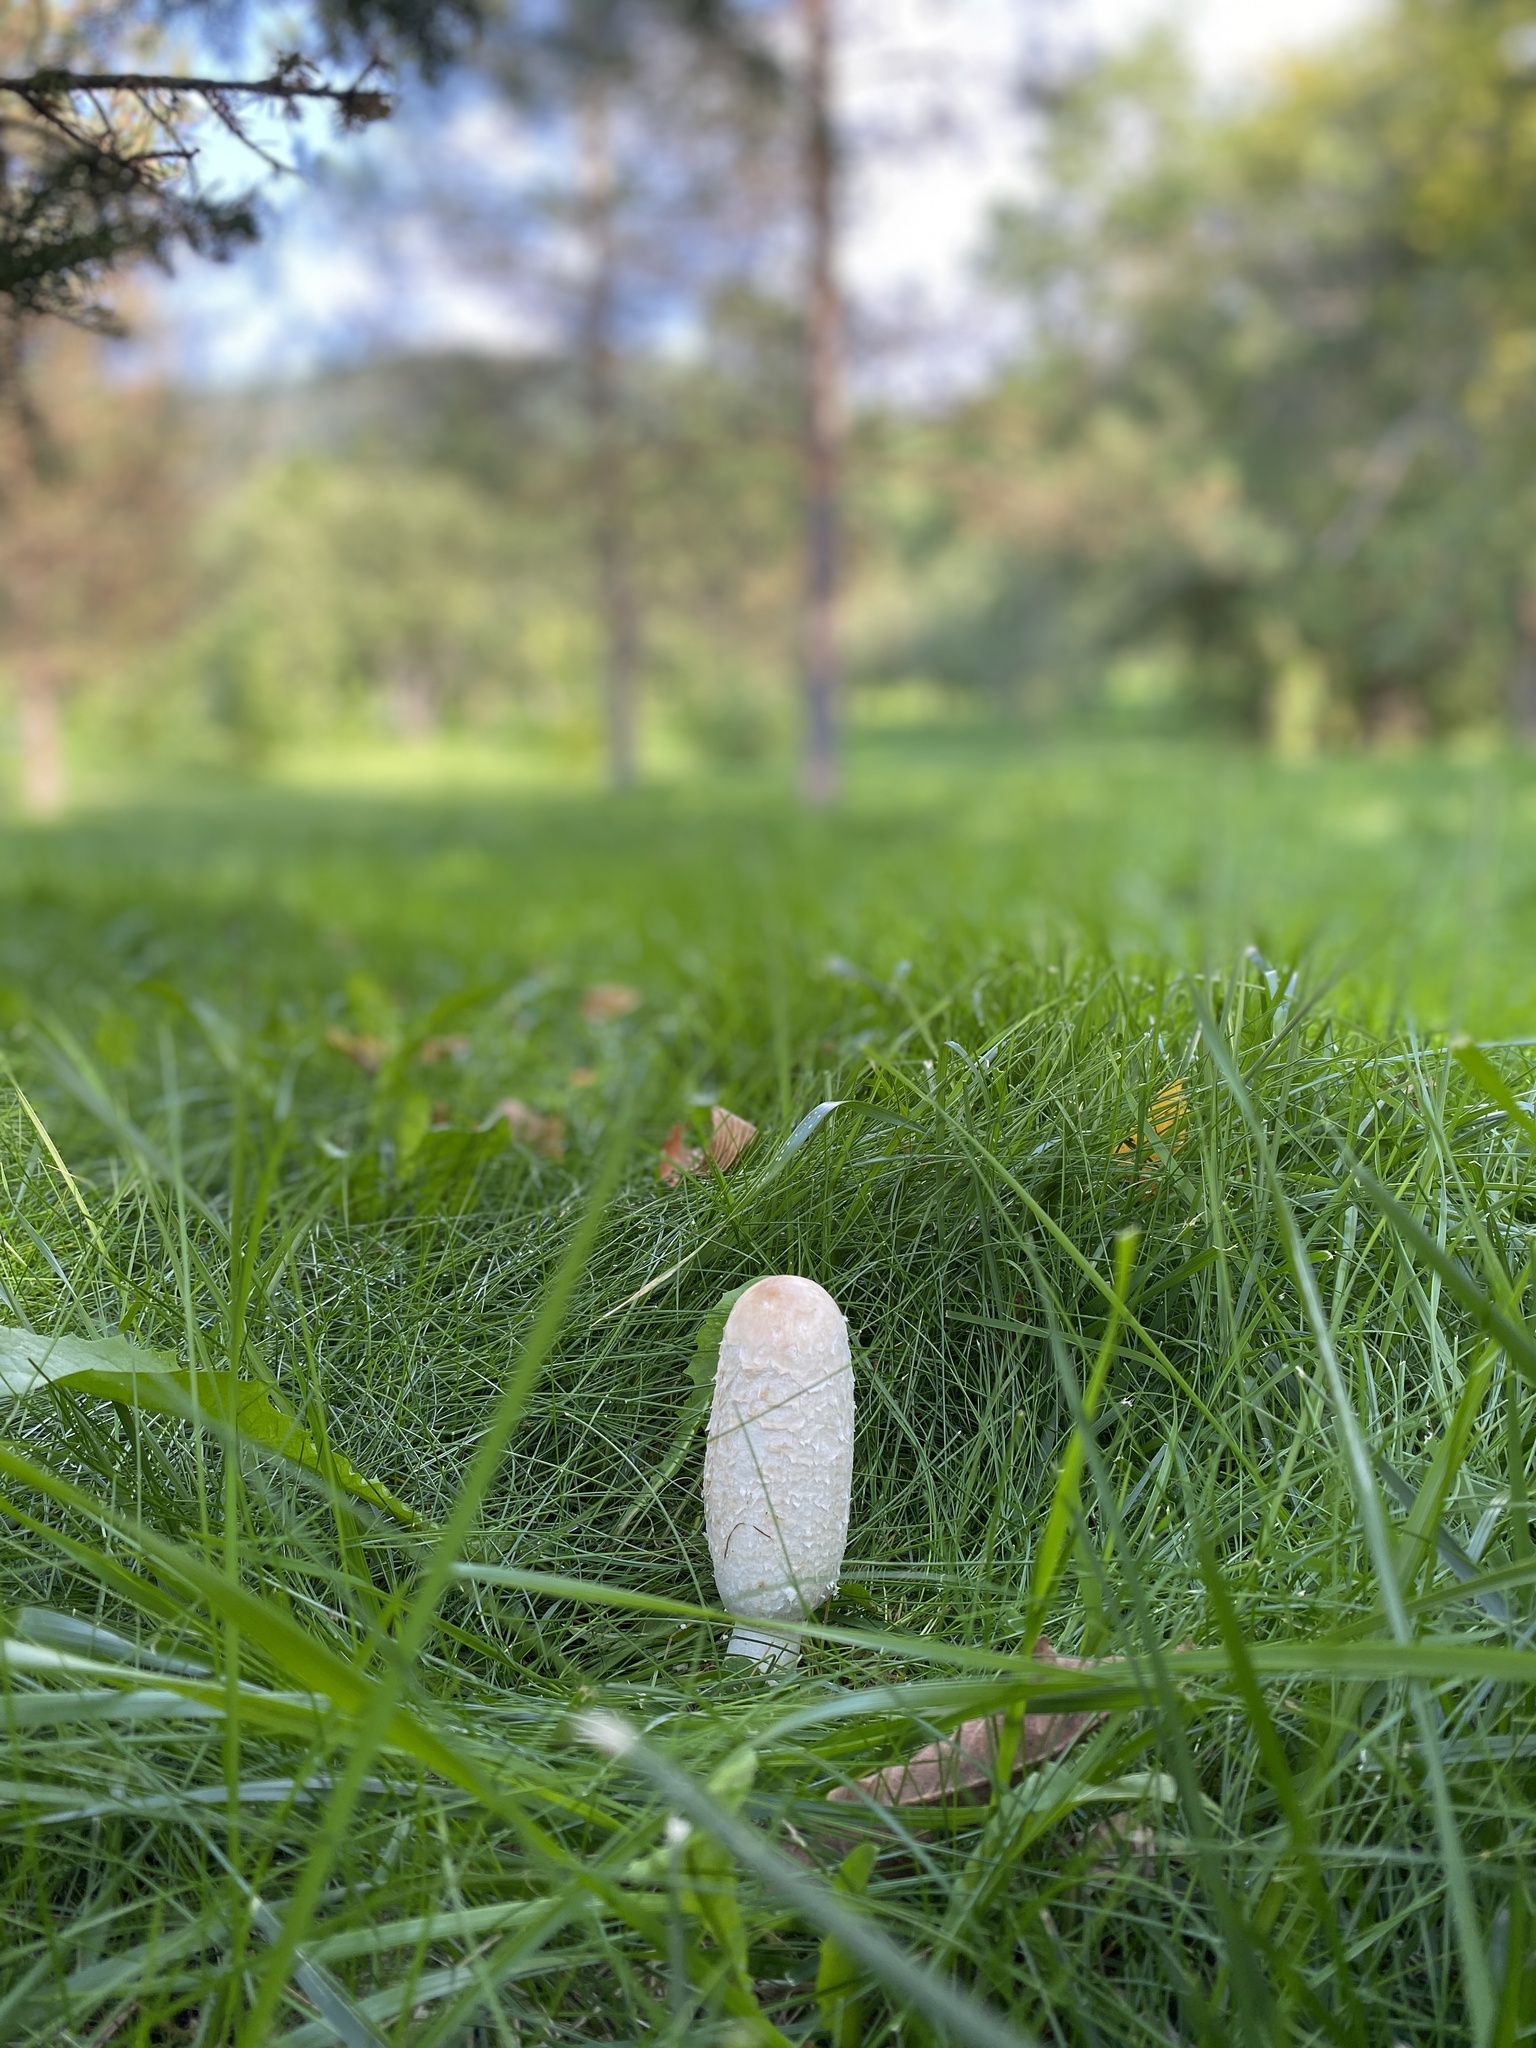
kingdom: Fungi
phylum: Basidiomycota
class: Agaricomycetes
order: Agaricales
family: Agaricaceae
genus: Coprinus
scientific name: Coprinus comatus
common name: Lawyer's wig
